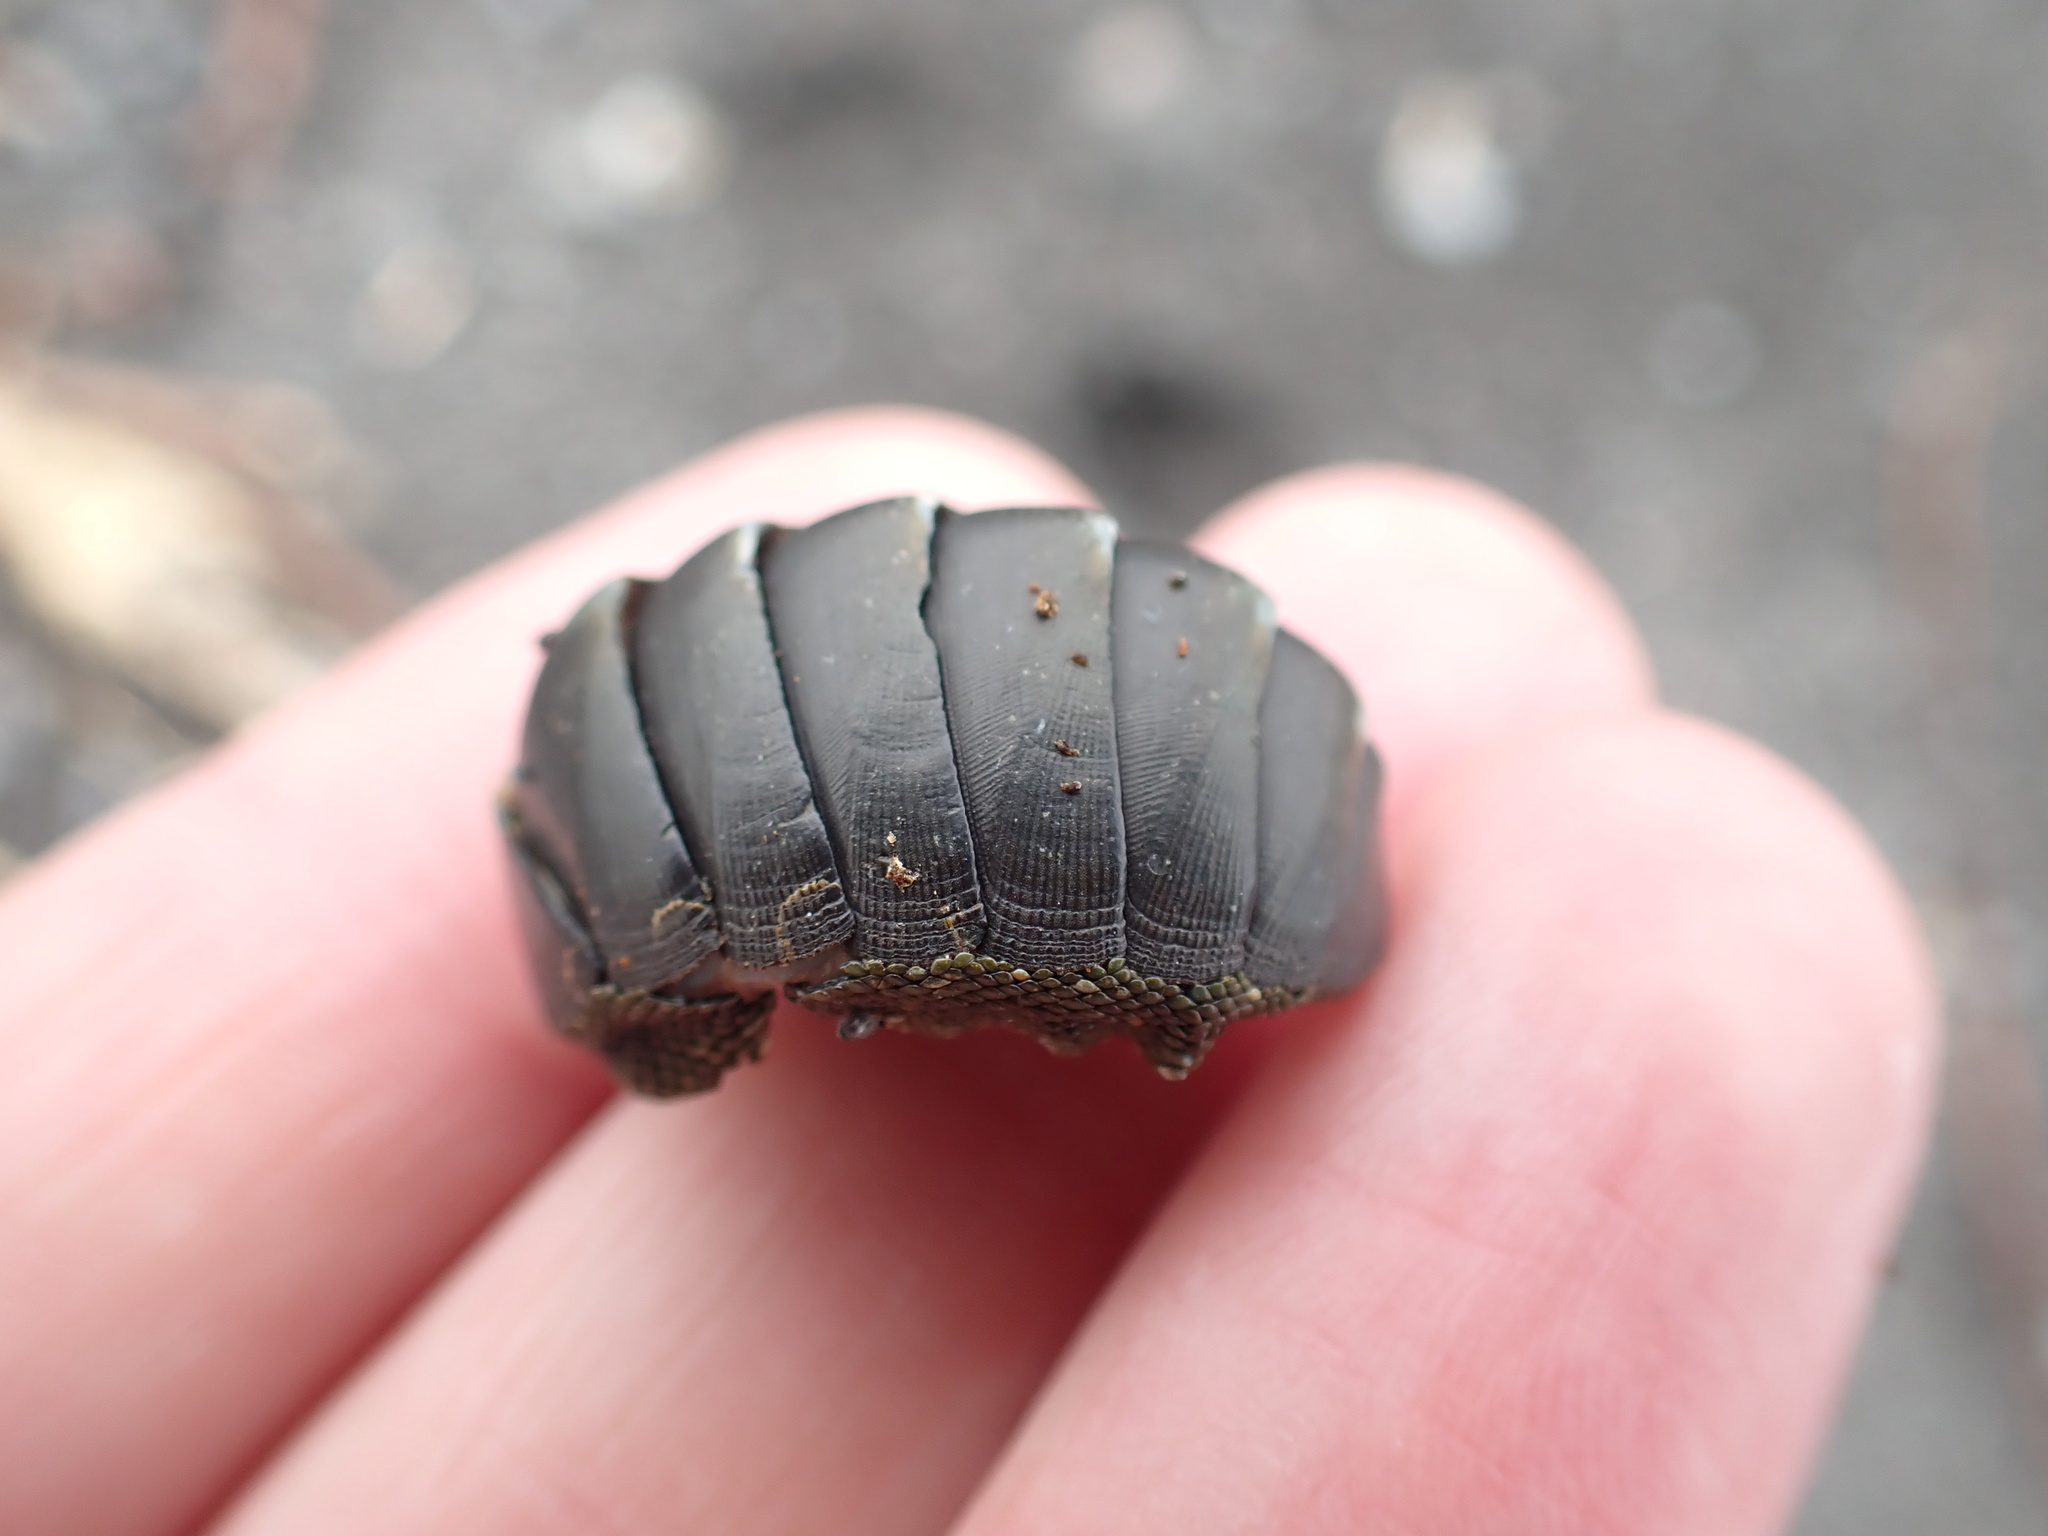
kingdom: Animalia
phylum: Mollusca
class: Polyplacophora
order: Chitonida
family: Chitonidae
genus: Chiton
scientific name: Chiton glaucus
